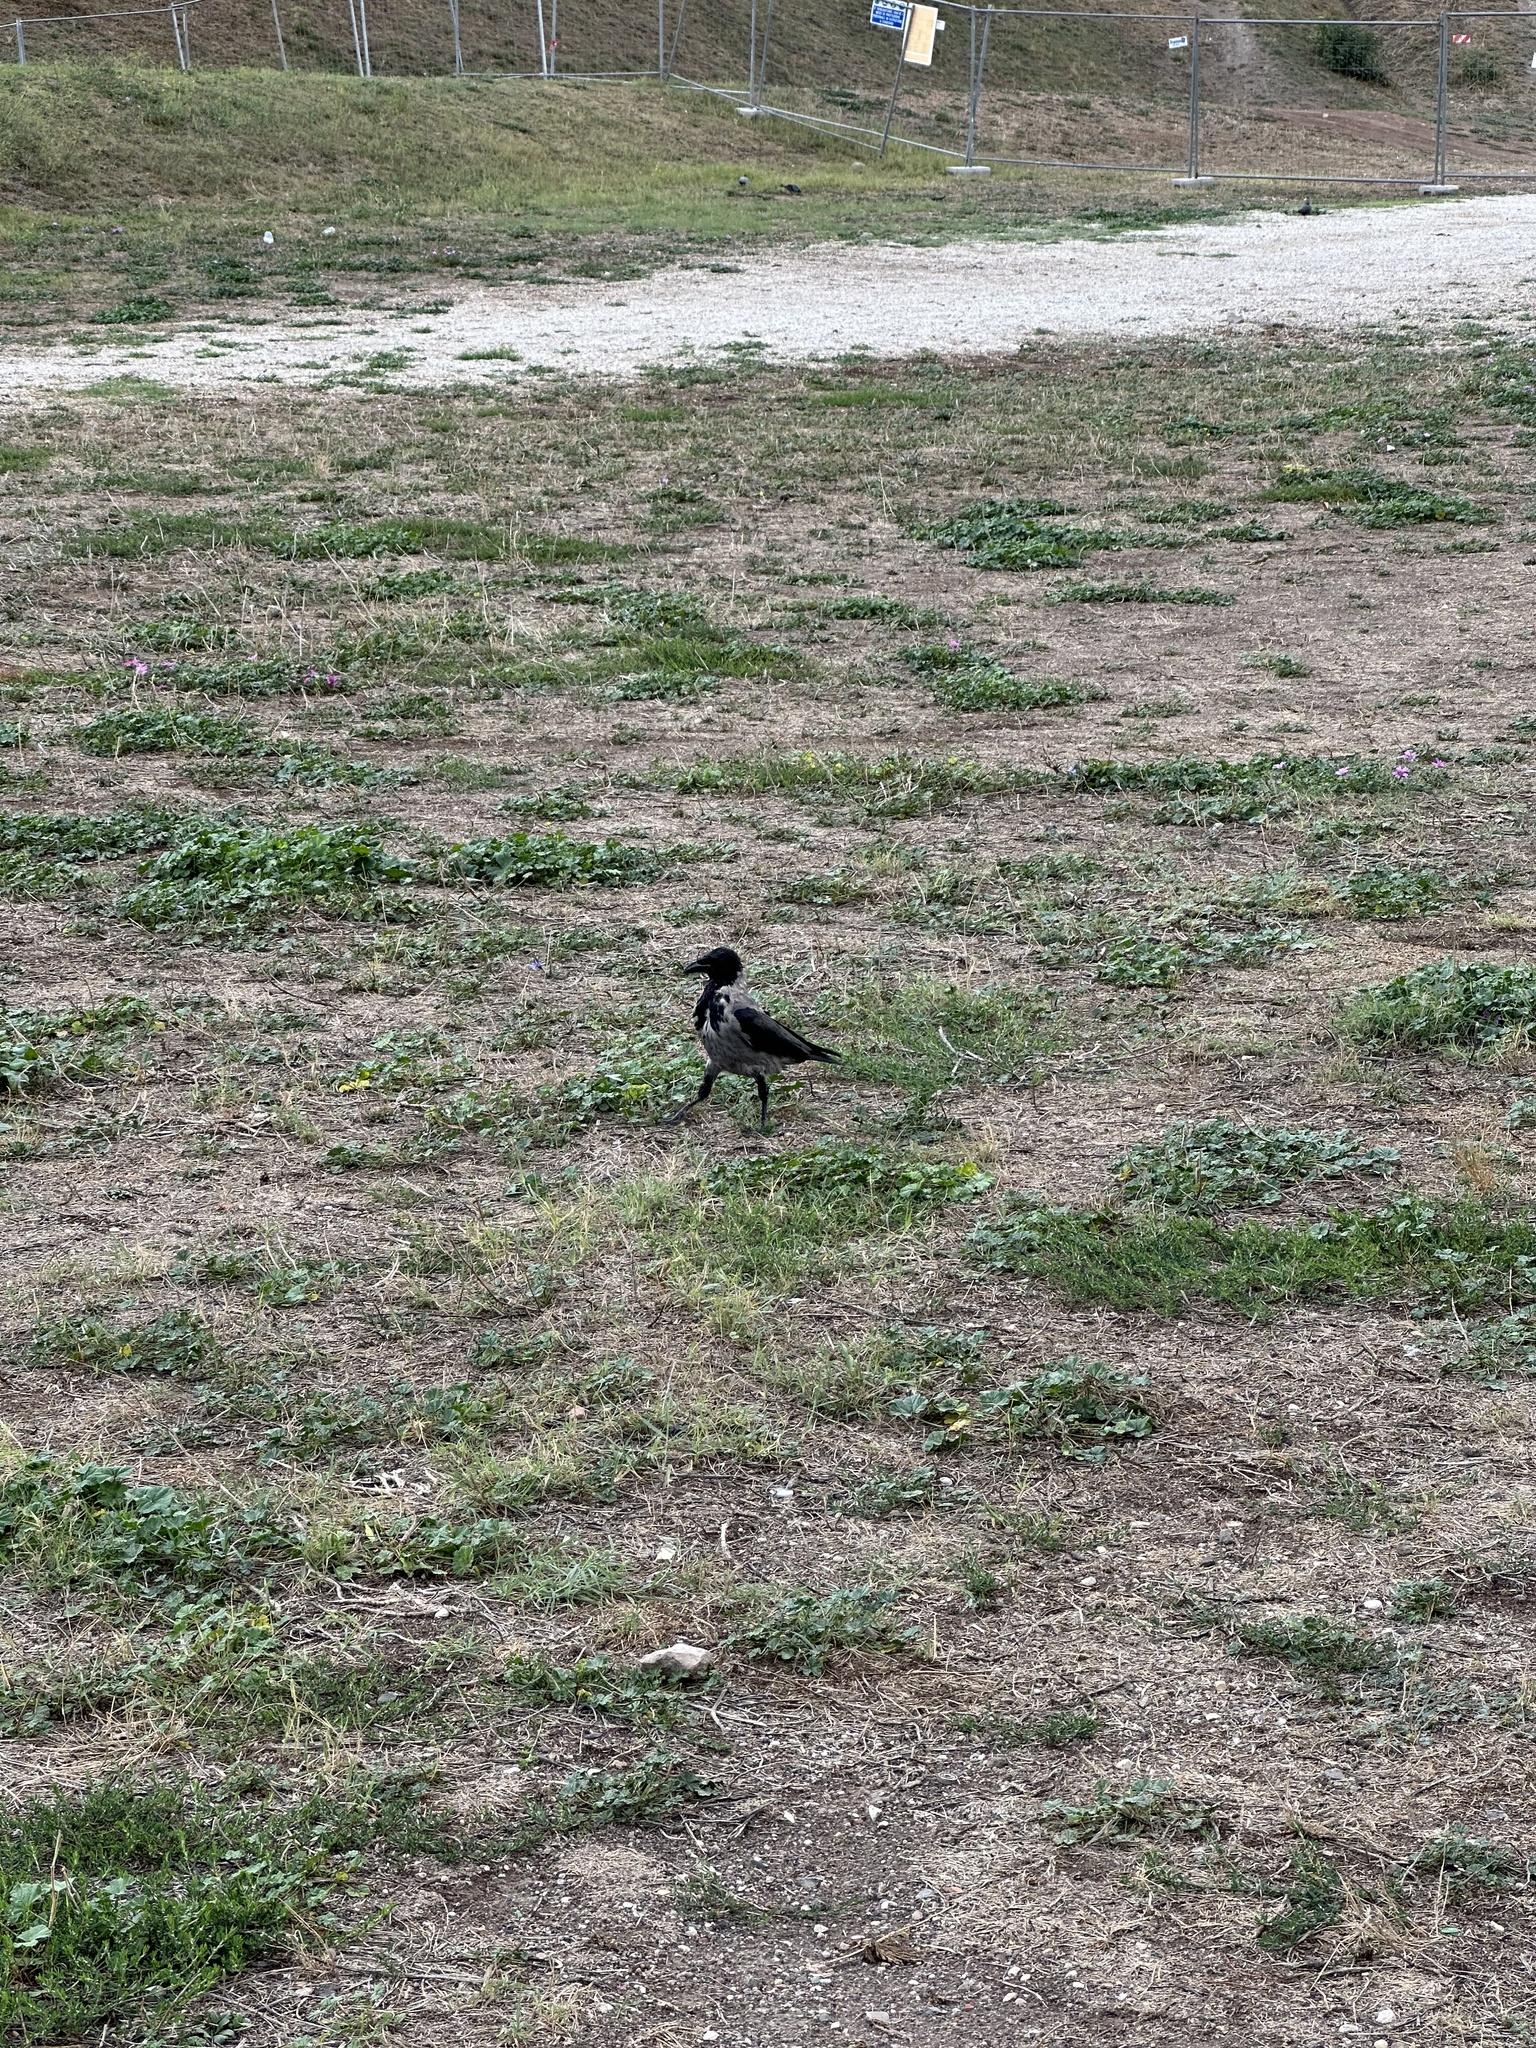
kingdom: Animalia
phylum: Chordata
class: Aves
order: Passeriformes
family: Corvidae
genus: Corvus
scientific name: Corvus cornix
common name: Hooded crow
